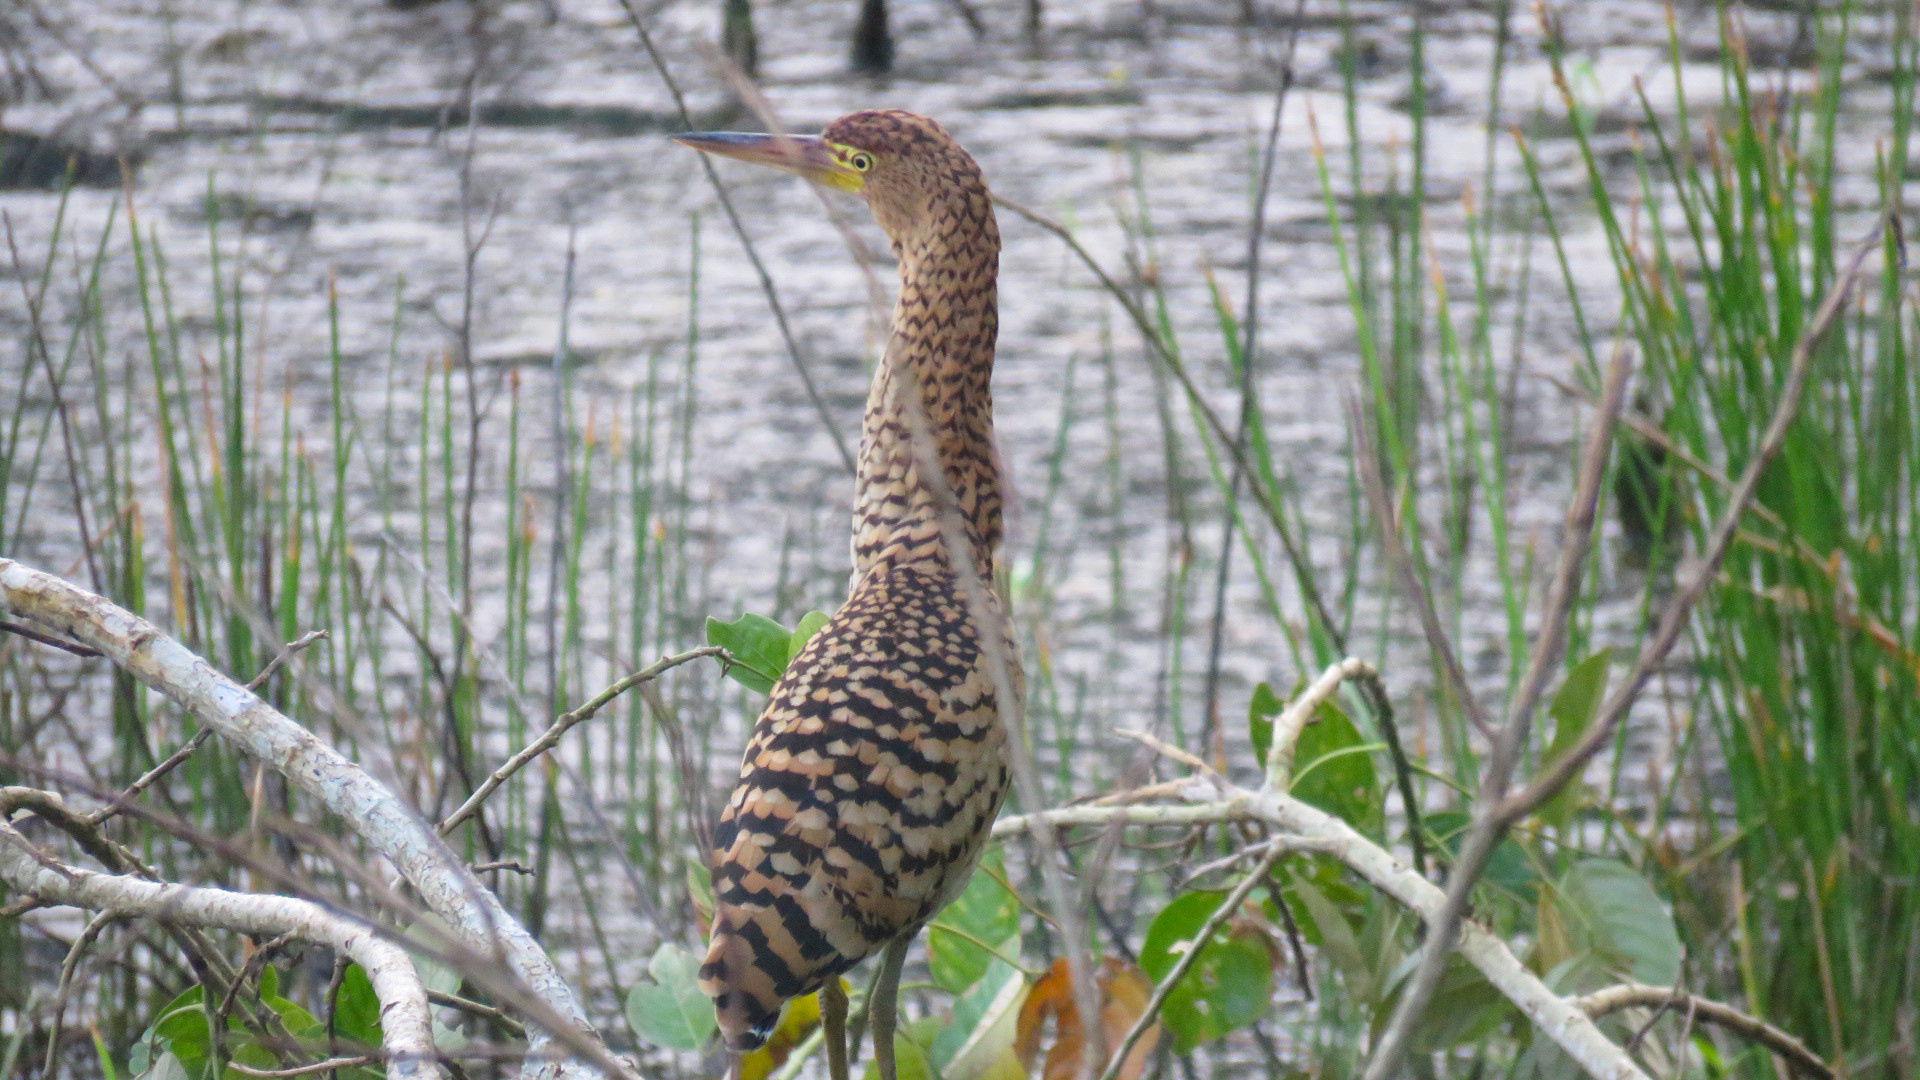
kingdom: Animalia
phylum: Chordata
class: Aves
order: Pelecaniformes
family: Ardeidae
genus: Tigrisoma
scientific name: Tigrisoma lineatum
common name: Rufescent tiger-heron
